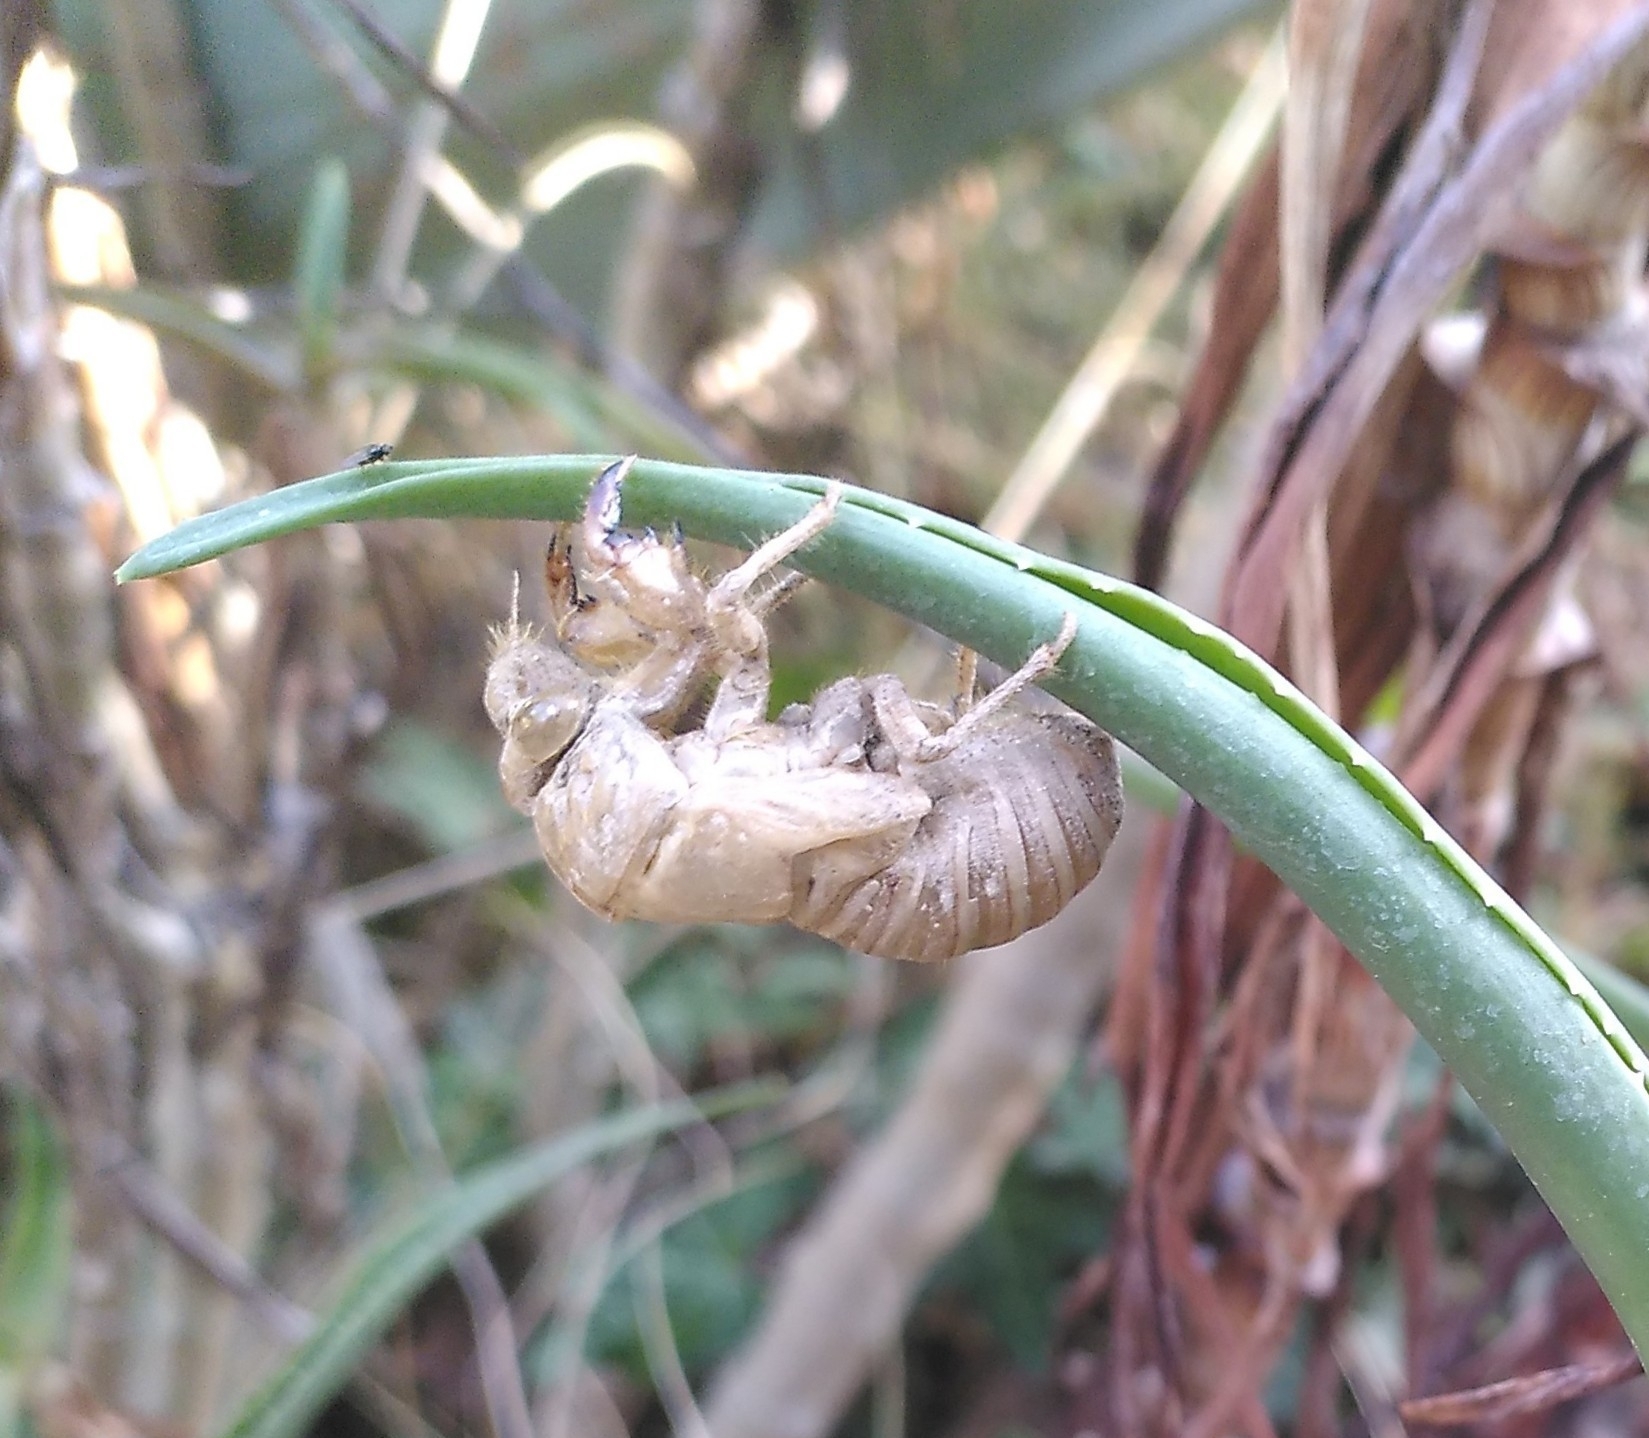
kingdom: Animalia
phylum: Arthropoda
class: Insecta
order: Hemiptera
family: Cicadidae
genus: Lyristes
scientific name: Lyristes plebejus
